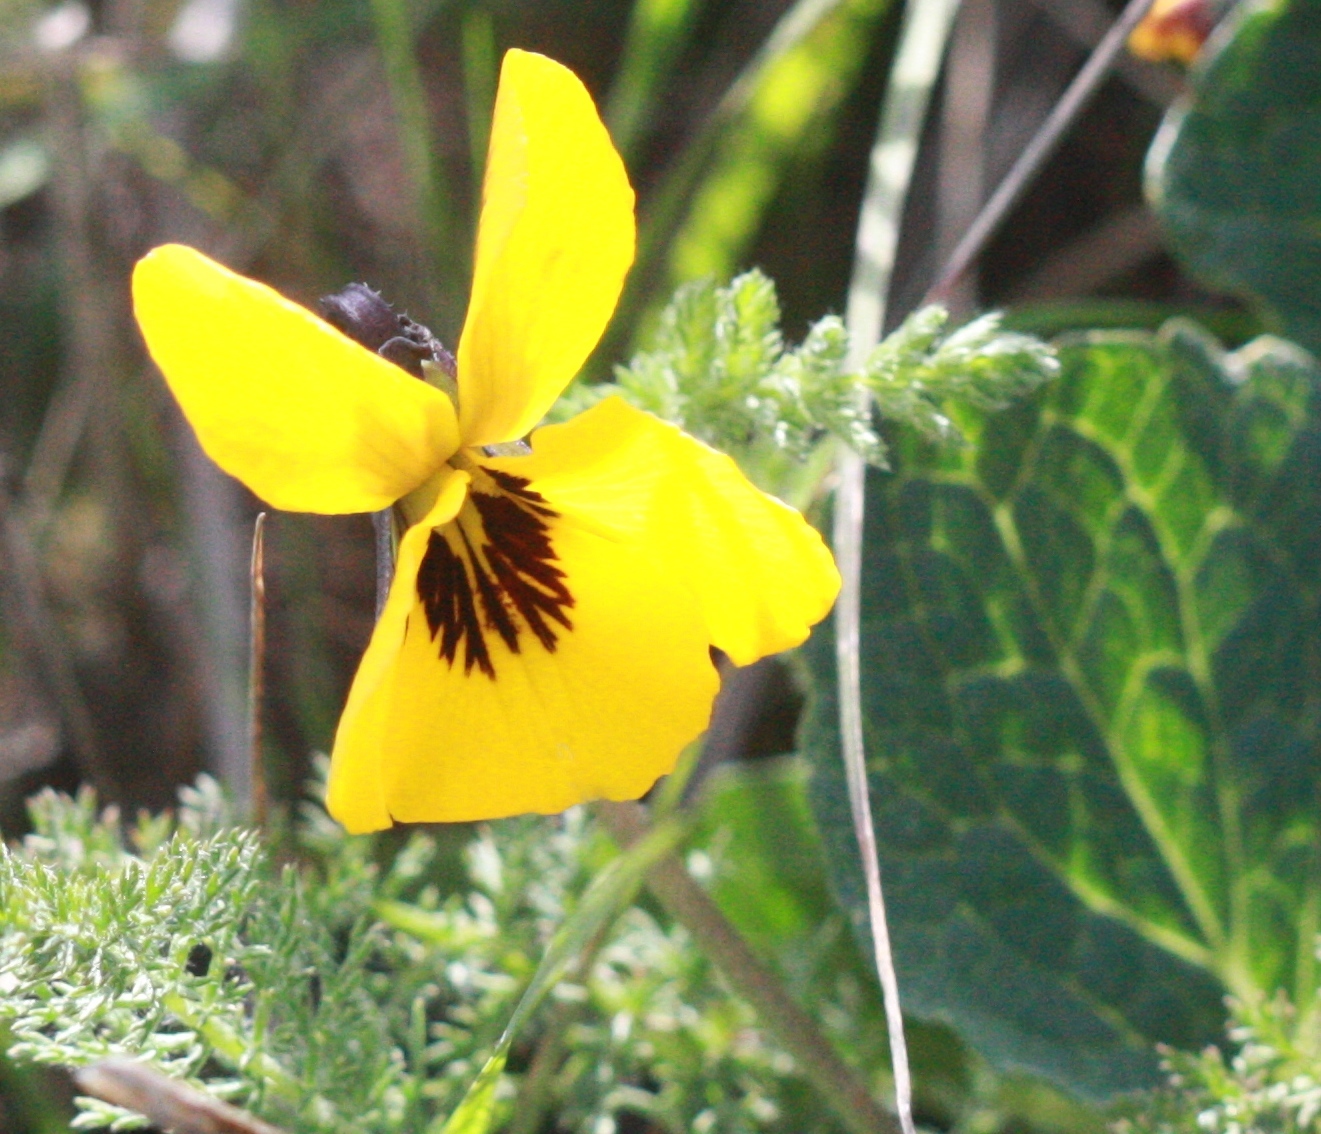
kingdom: Plantae
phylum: Tracheophyta
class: Magnoliopsida
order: Malpighiales
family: Violaceae
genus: Viola
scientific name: Viola pedunculata
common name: California golden violet
